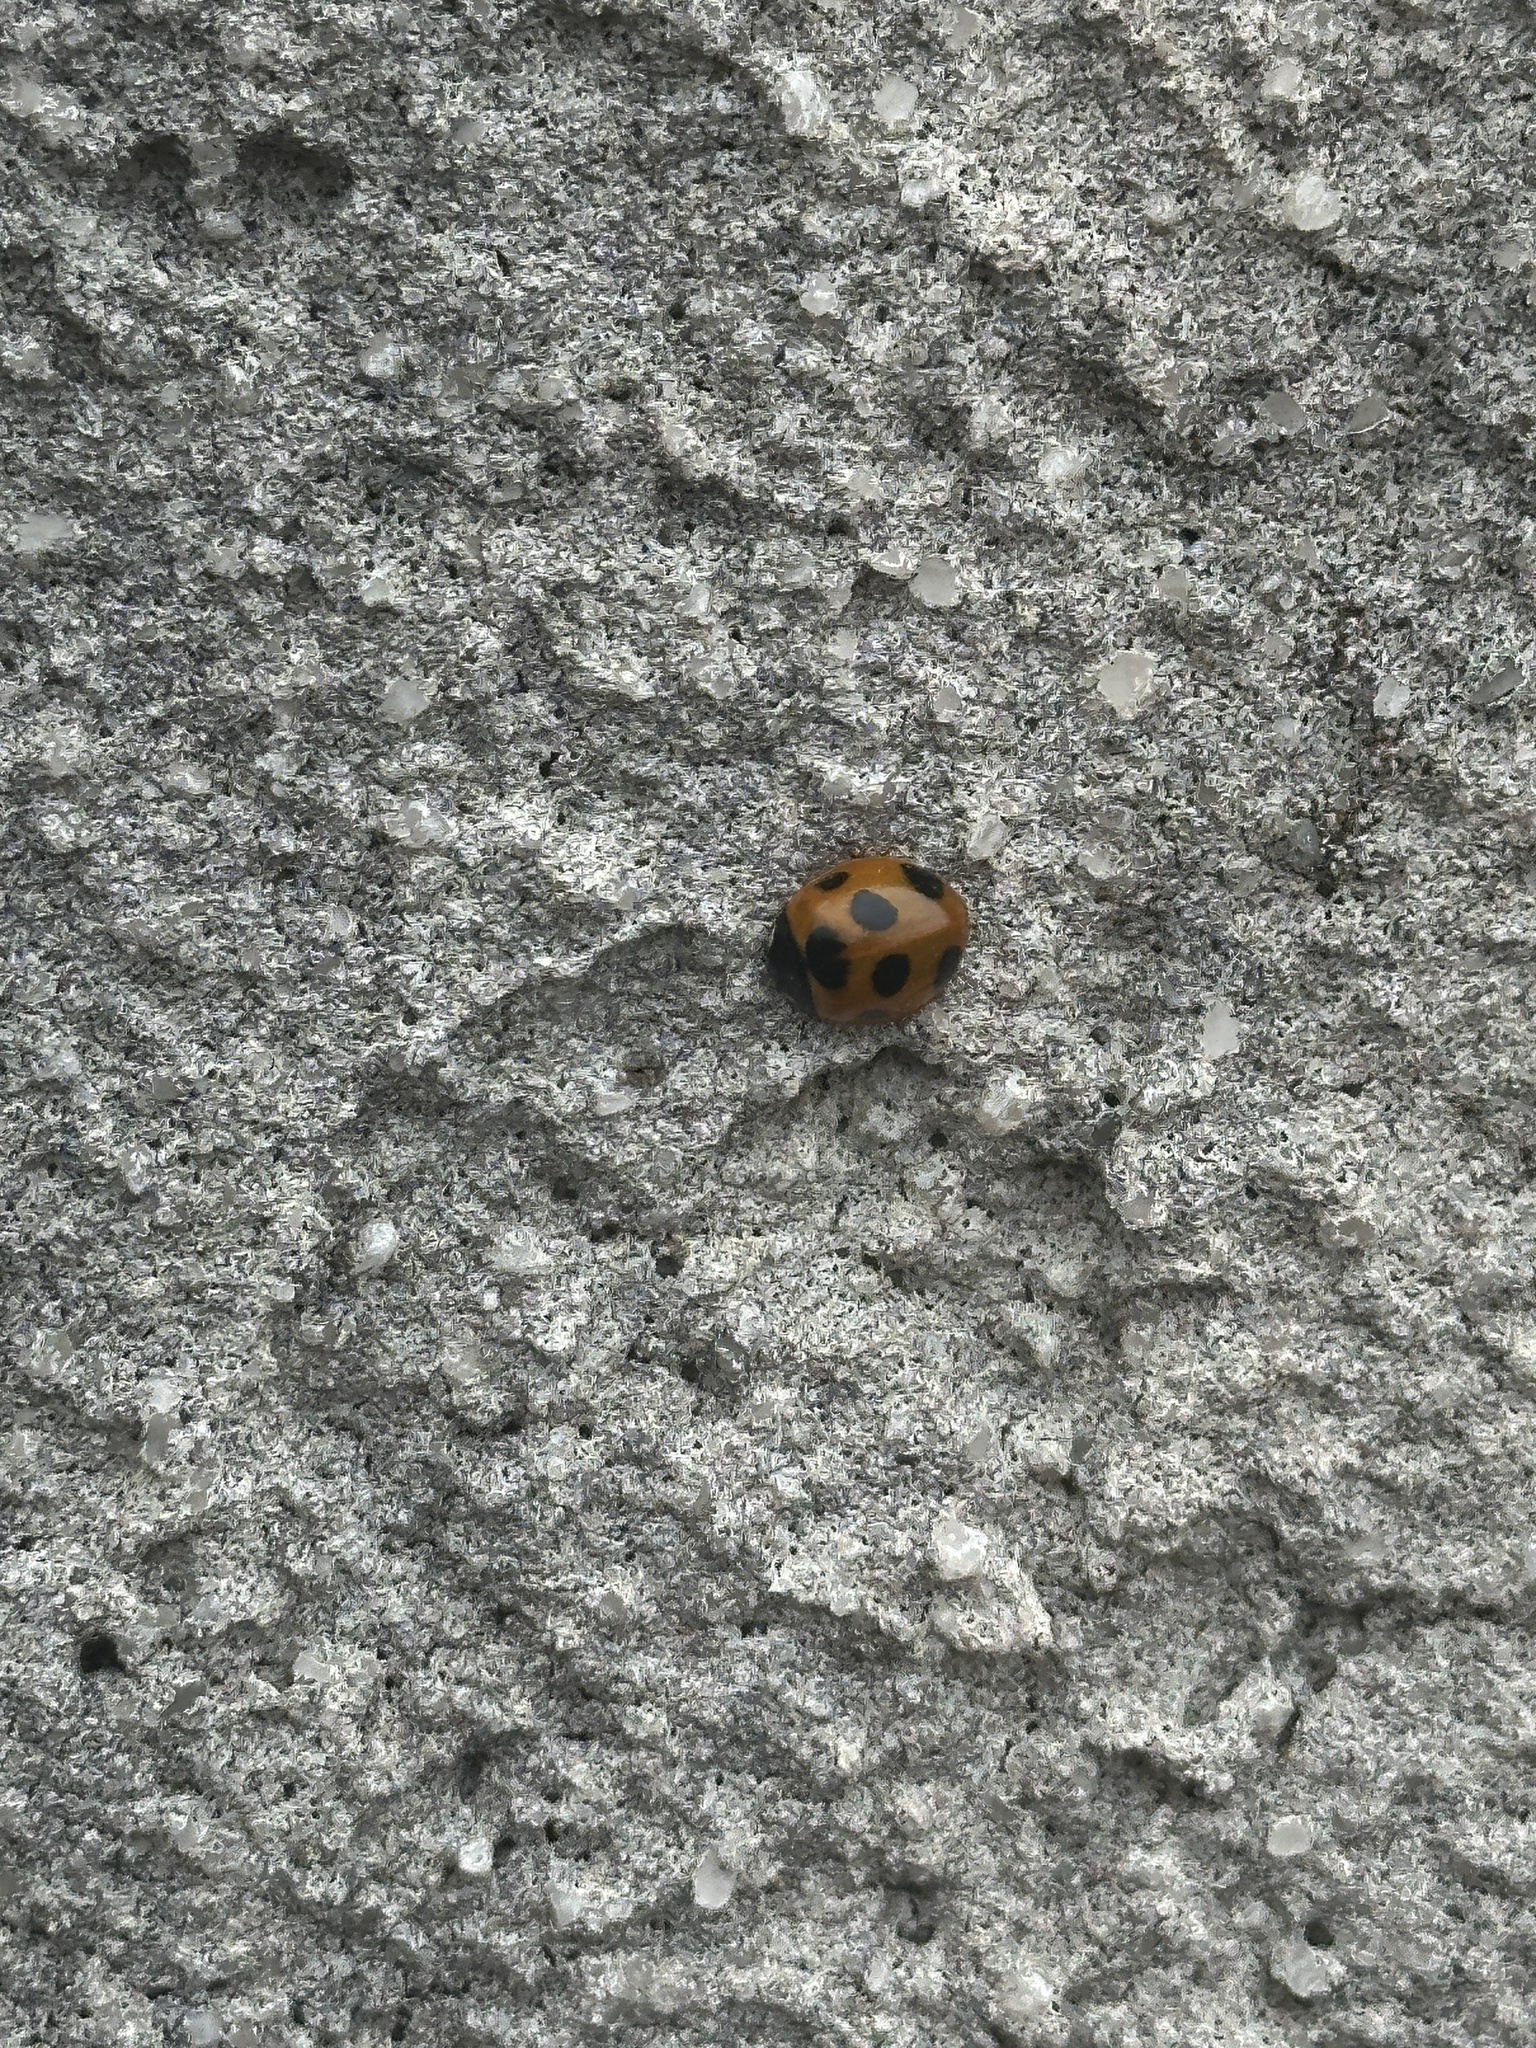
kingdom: Animalia
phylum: Arthropoda
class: Insecta
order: Coleoptera
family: Coccinellidae
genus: Coccinella
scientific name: Coccinella septempunctata
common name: Sevenspotted lady beetle
